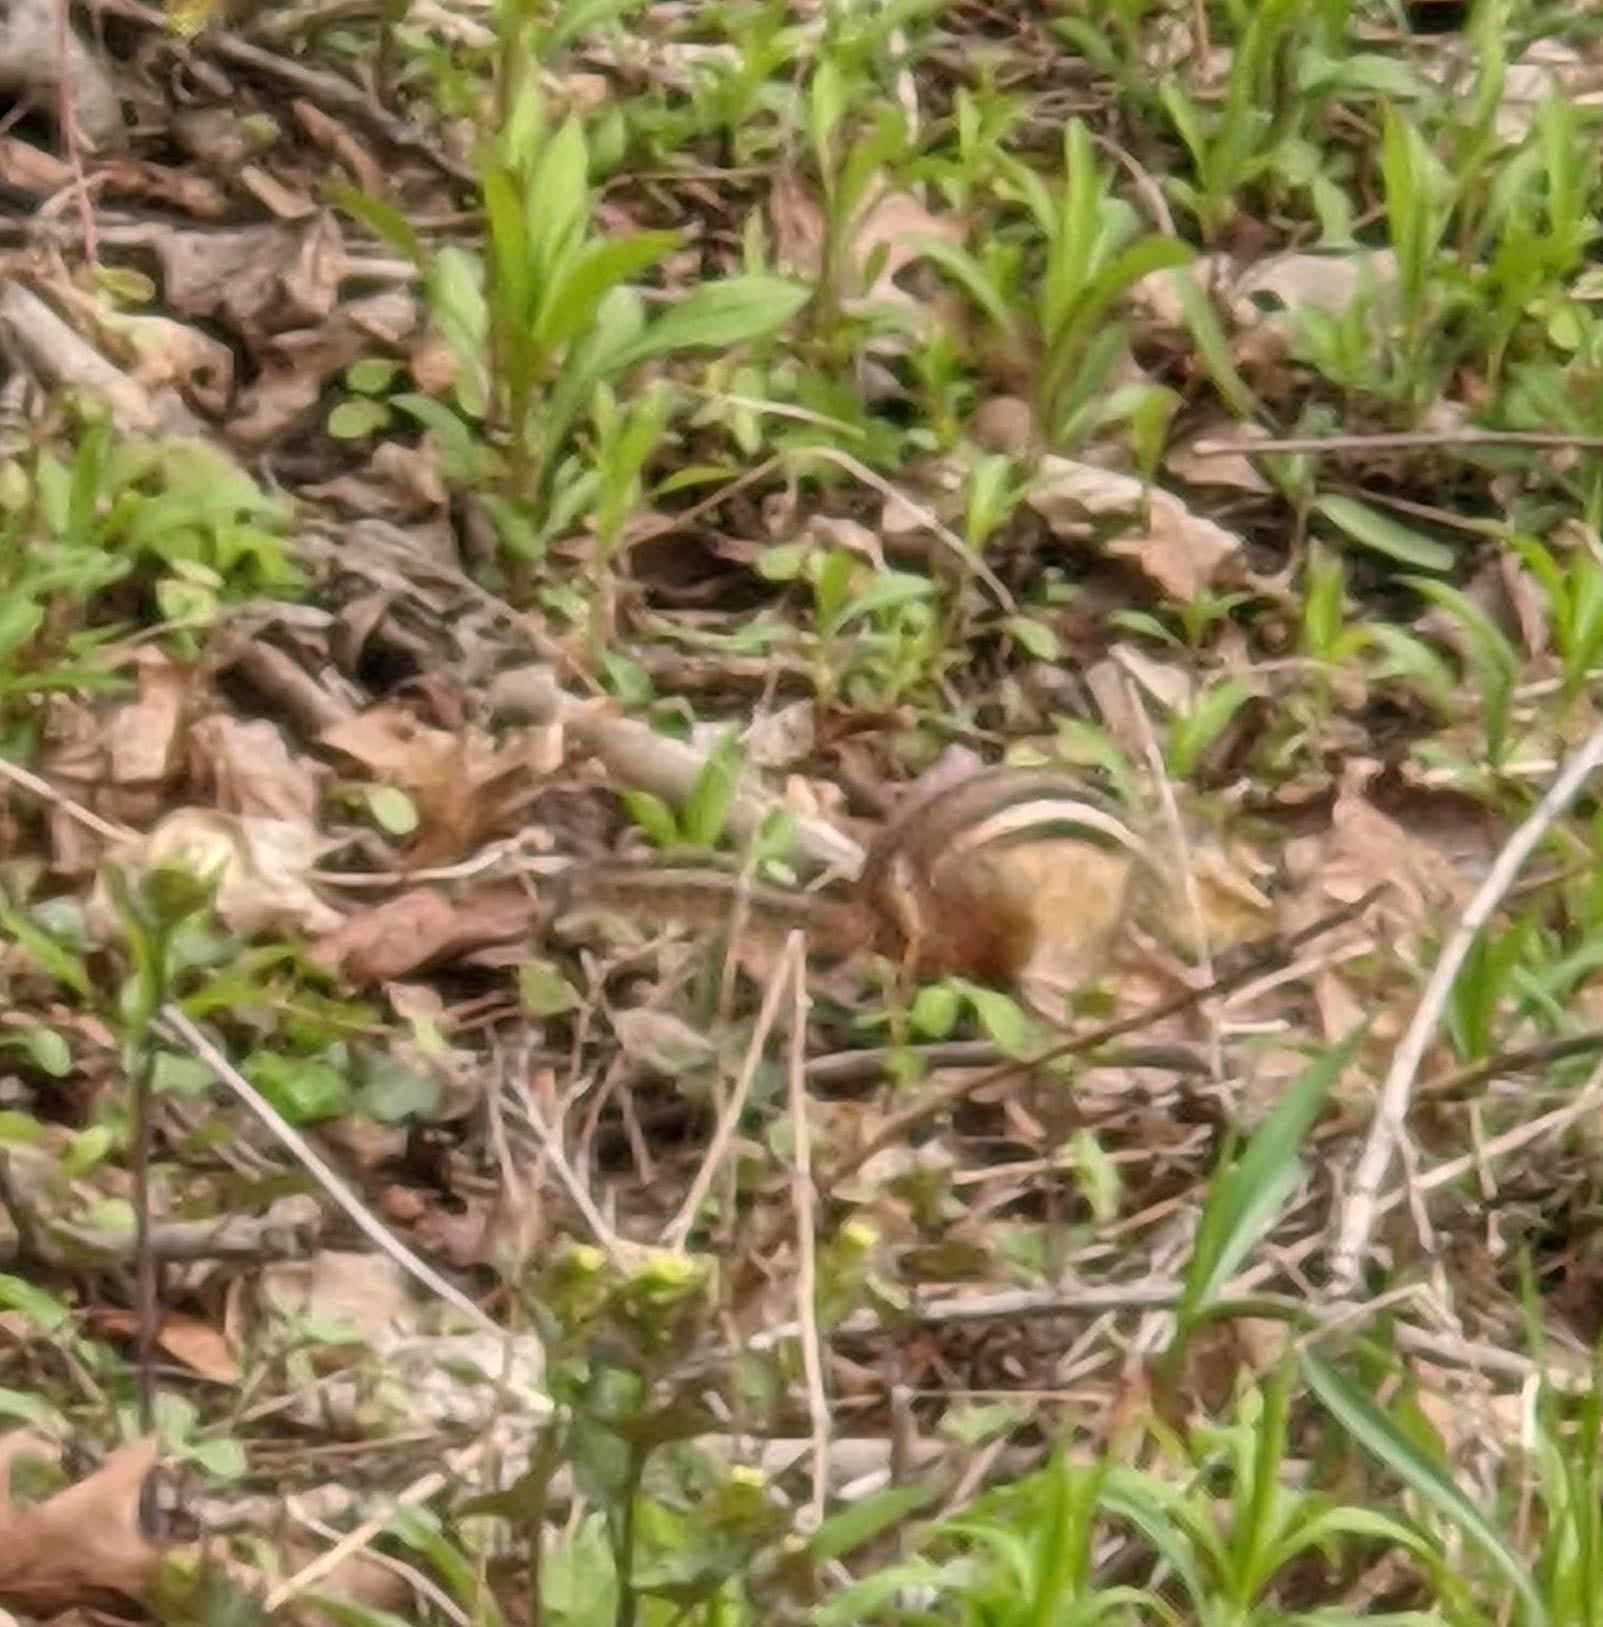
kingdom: Animalia
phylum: Chordata
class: Mammalia
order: Rodentia
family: Sciuridae
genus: Tamias
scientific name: Tamias striatus
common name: Eastern chipmunk
